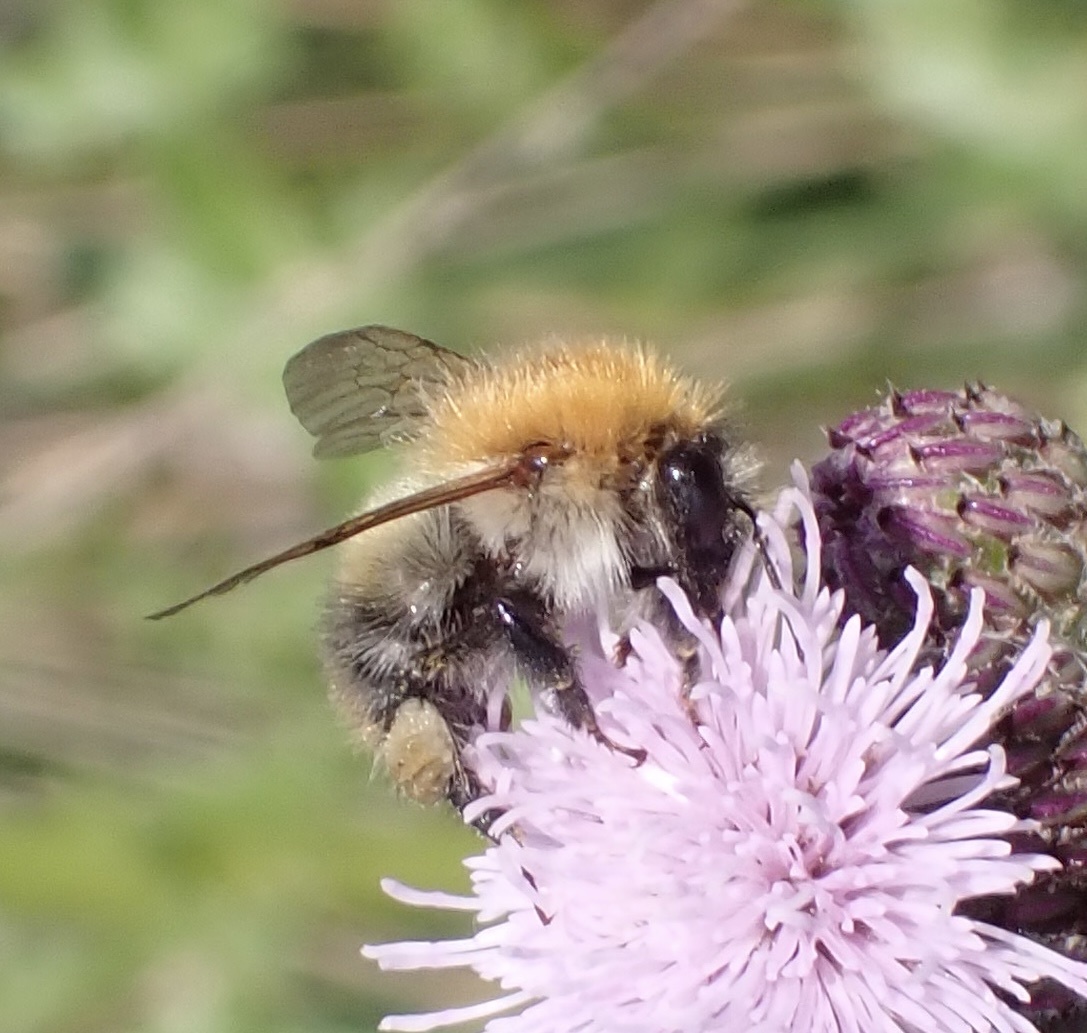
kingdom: Animalia
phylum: Arthropoda
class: Insecta
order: Hymenoptera
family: Apidae
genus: Bombus
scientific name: Bombus pascuorum
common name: Common carder bee
